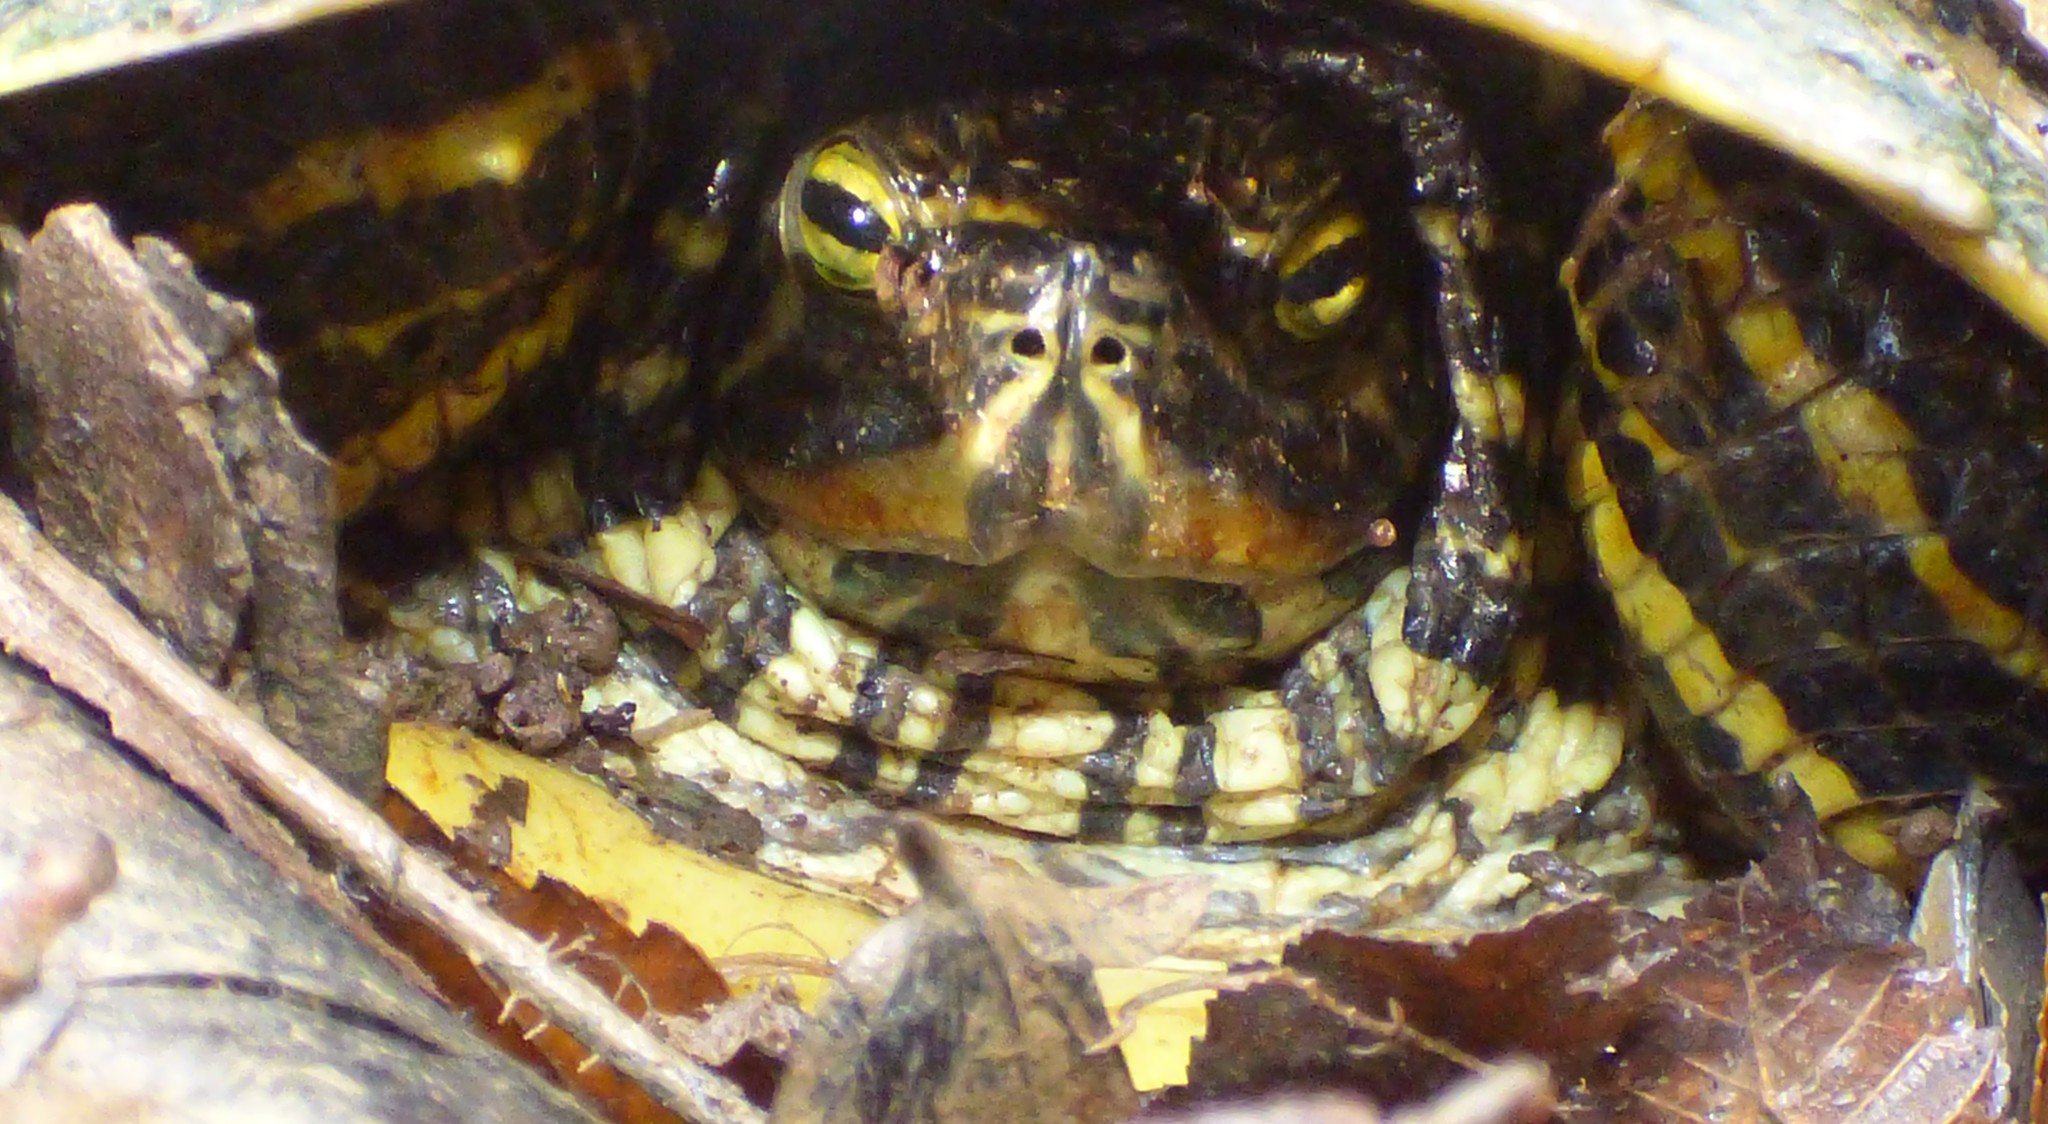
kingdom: Animalia
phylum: Chordata
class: Testudines
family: Emydidae
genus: Trachemys
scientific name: Trachemys scripta
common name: Slider
